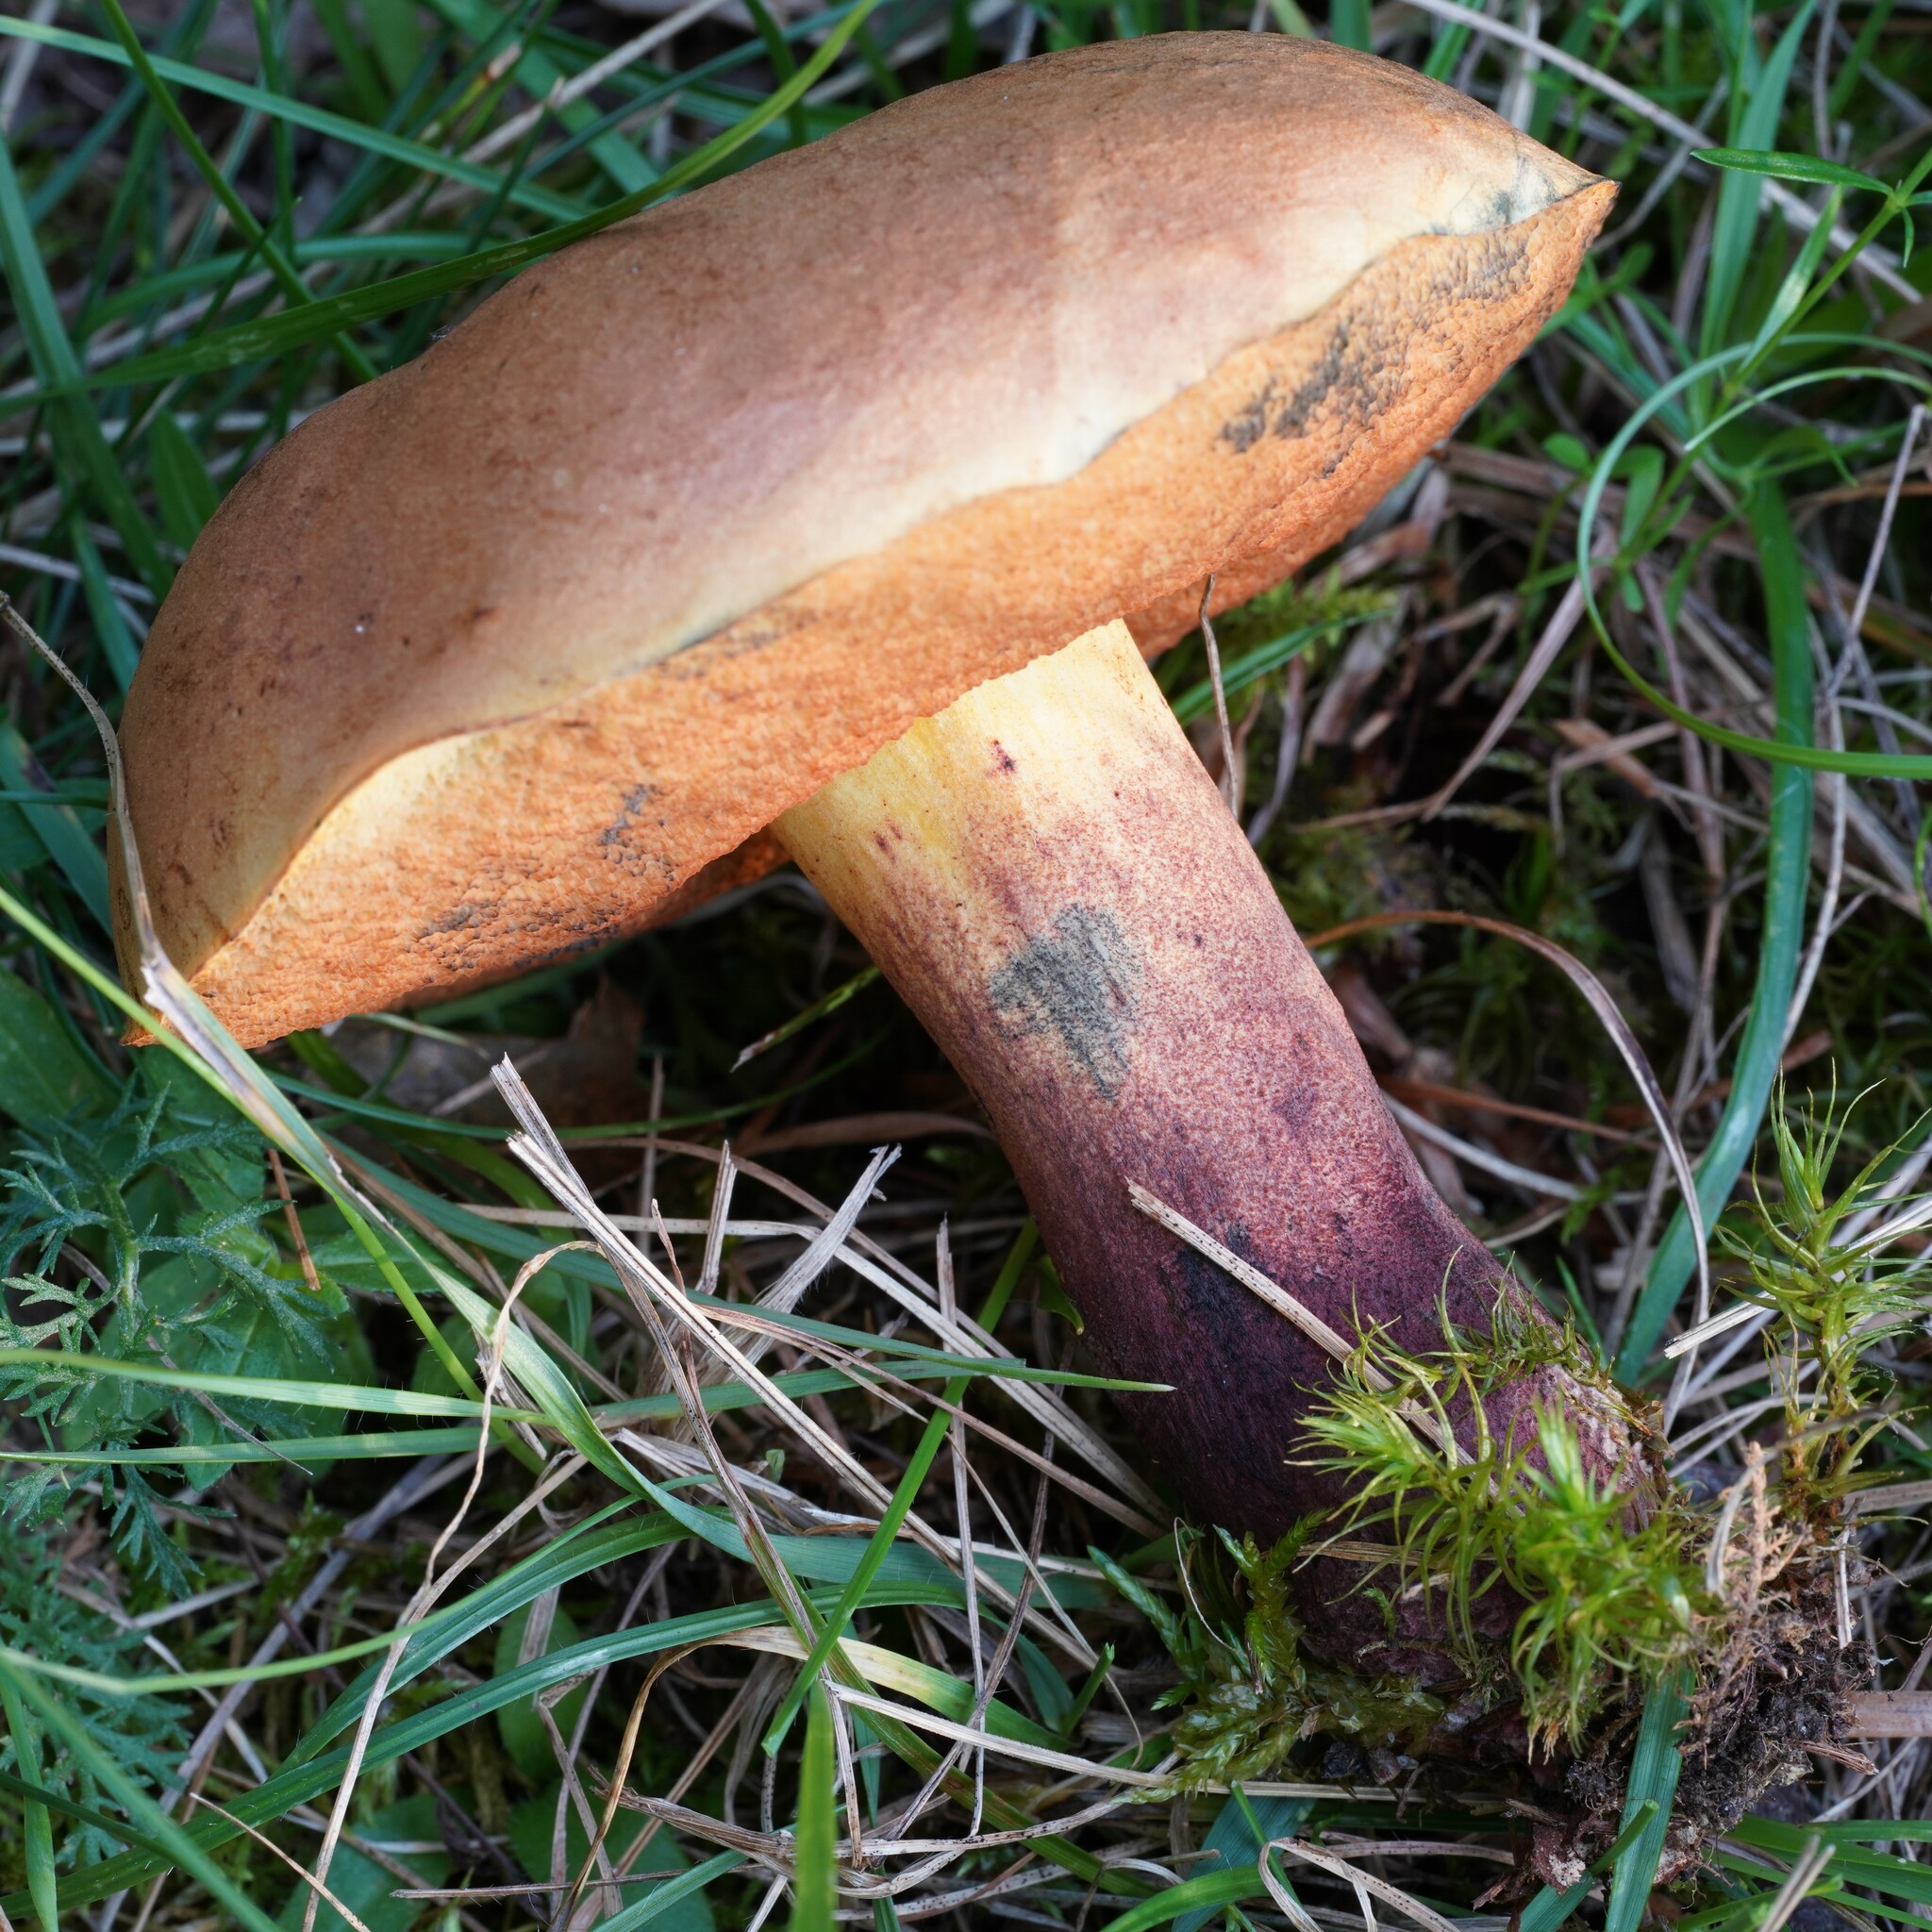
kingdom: Fungi
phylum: Basidiomycota
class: Agaricomycetes
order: Boletales
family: Boletaceae
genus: Suillellus
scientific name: Suillellus queletii
